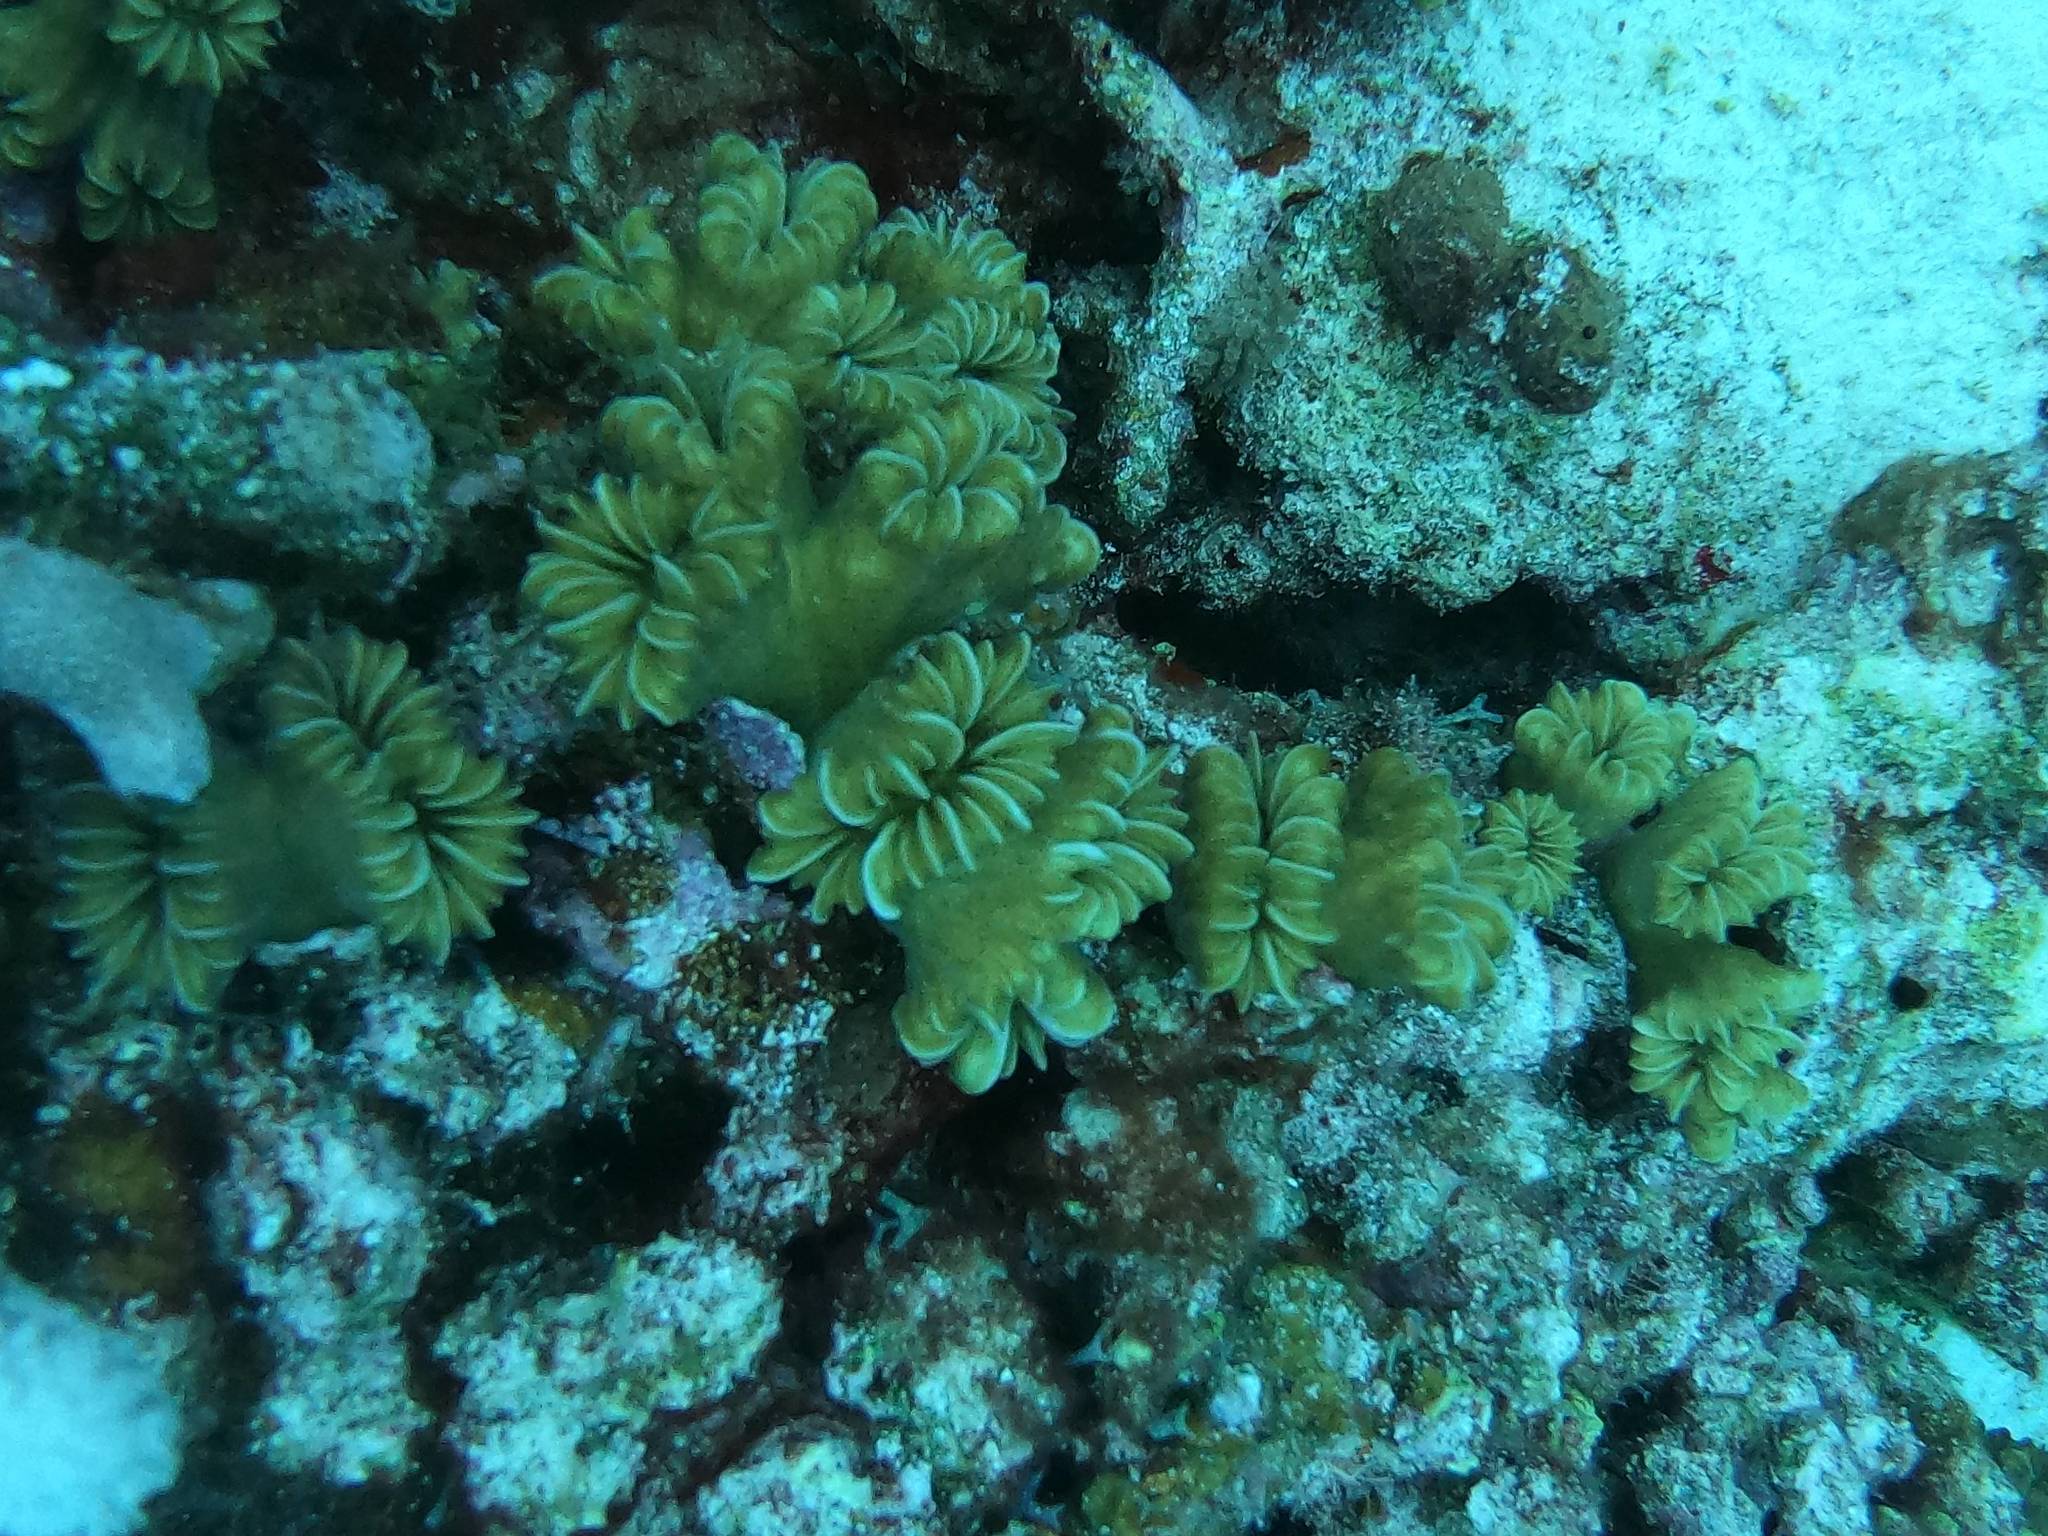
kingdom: Animalia
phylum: Cnidaria
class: Anthozoa
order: Scleractinia
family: Meandrinidae
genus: Eusmilia
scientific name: Eusmilia fastigiata
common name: Smooth flower coral
